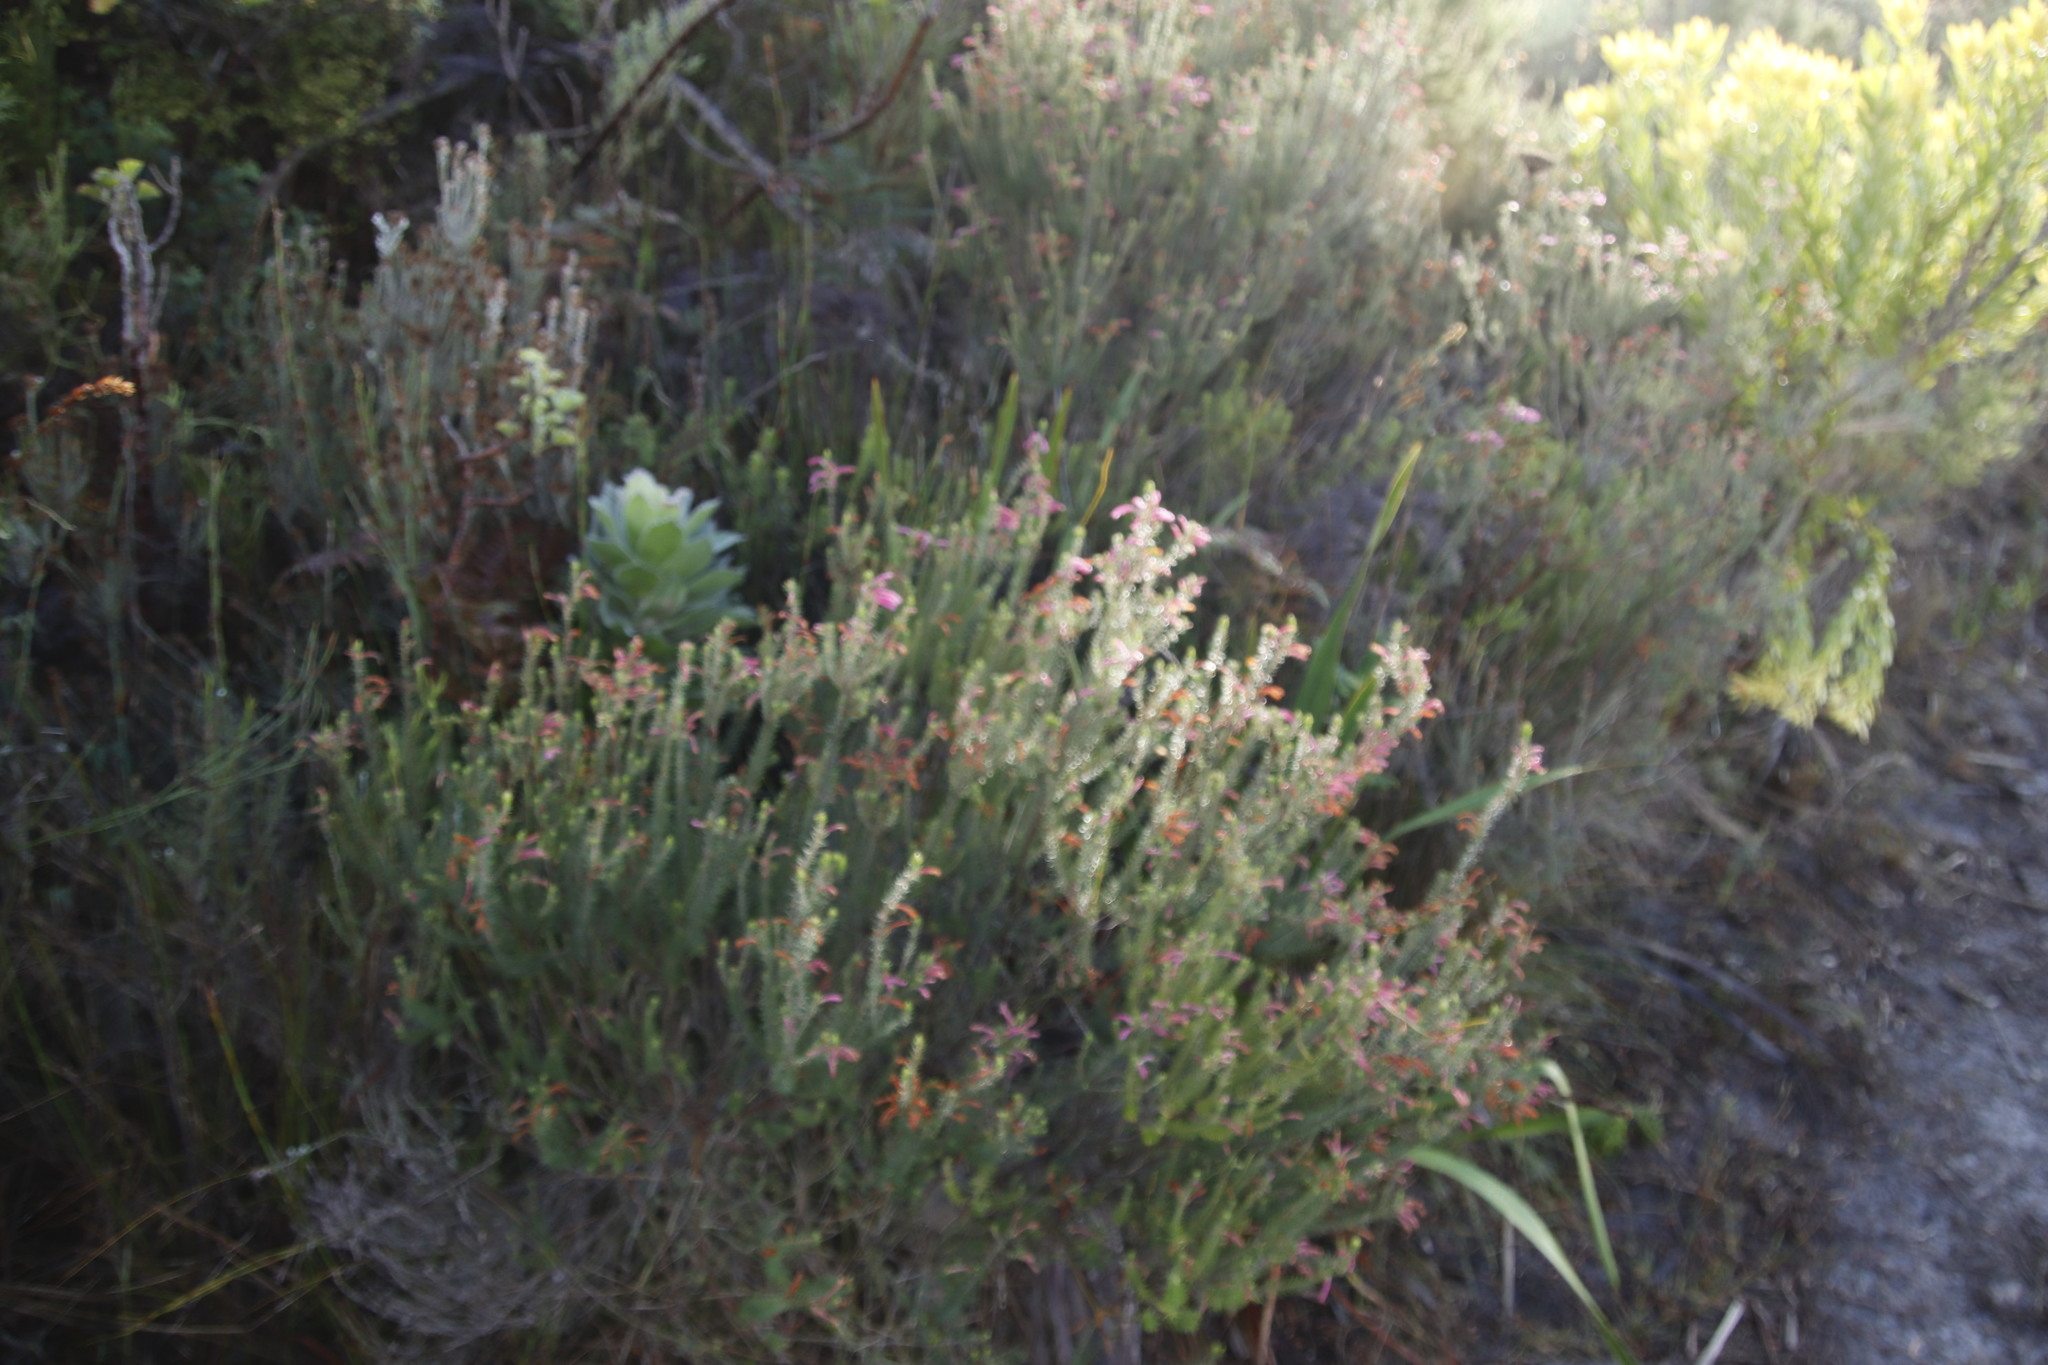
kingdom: Plantae
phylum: Tracheophyta
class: Magnoliopsida
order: Ericales
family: Ericaceae
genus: Erica
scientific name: Erica abietina
